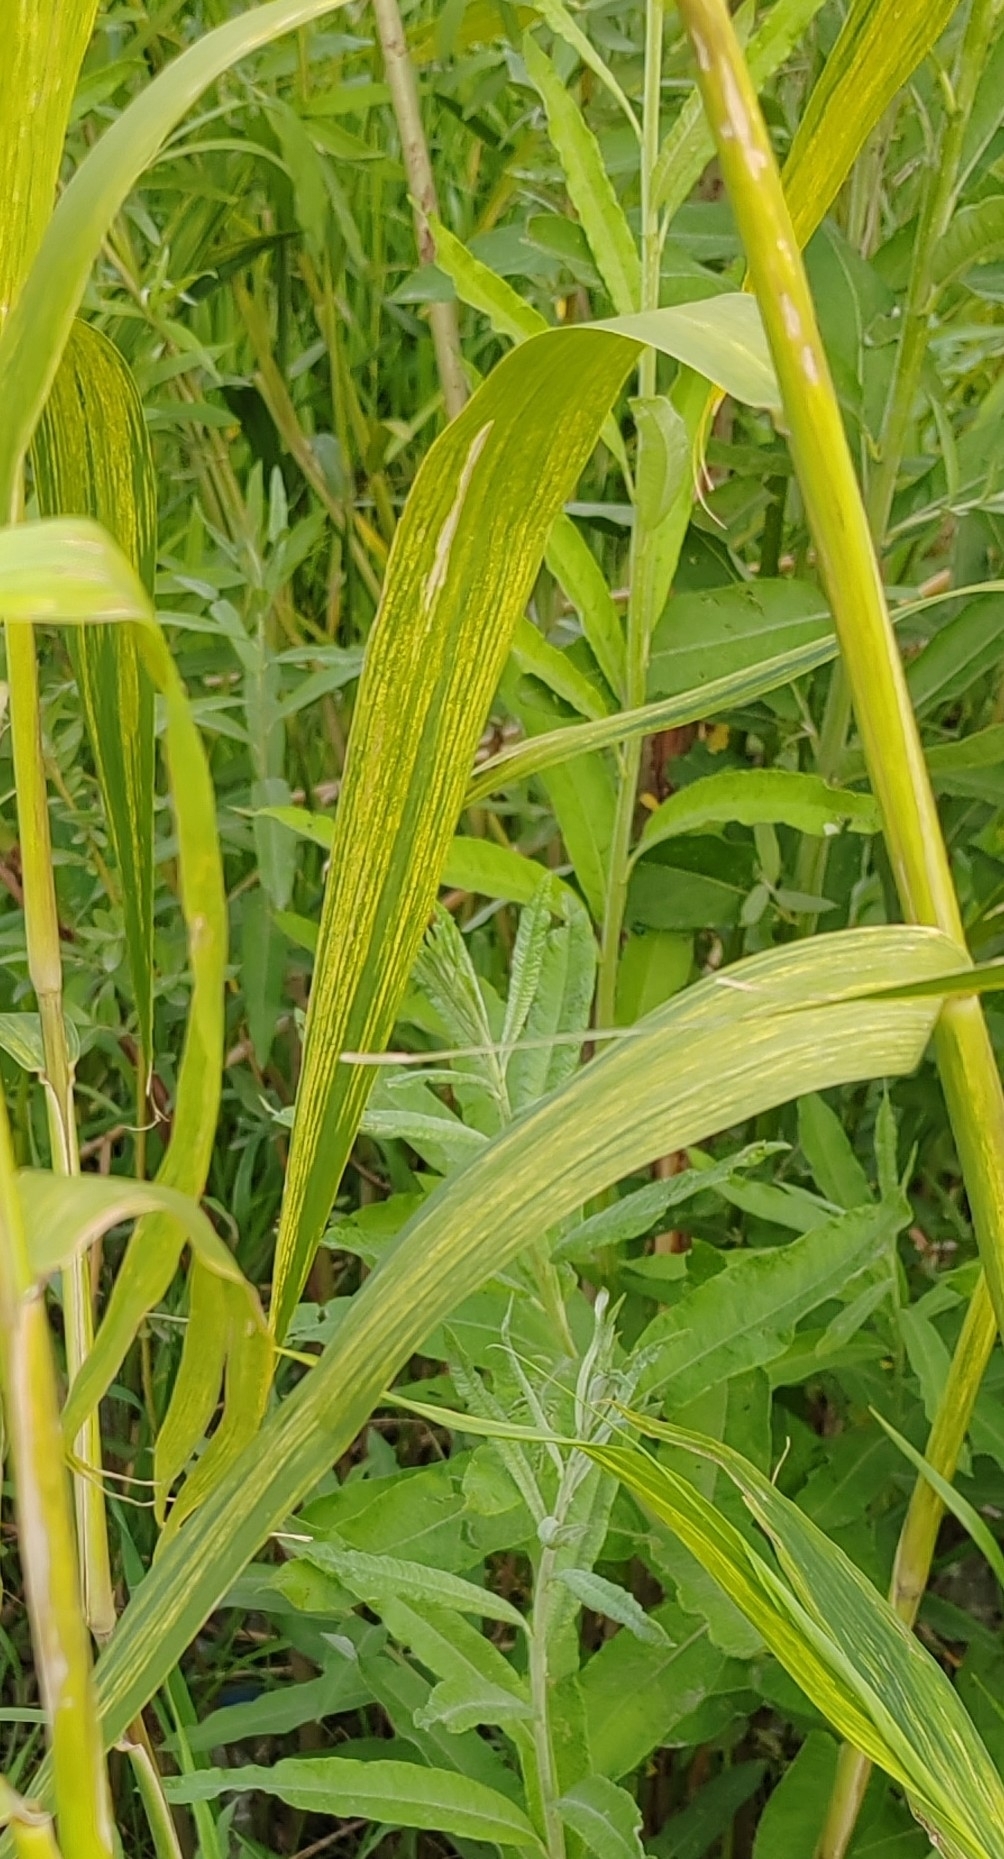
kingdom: Plantae
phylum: Tracheophyta
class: Liliopsida
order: Poales
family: Poaceae
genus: Phragmites
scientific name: Phragmites australis
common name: Common reed
